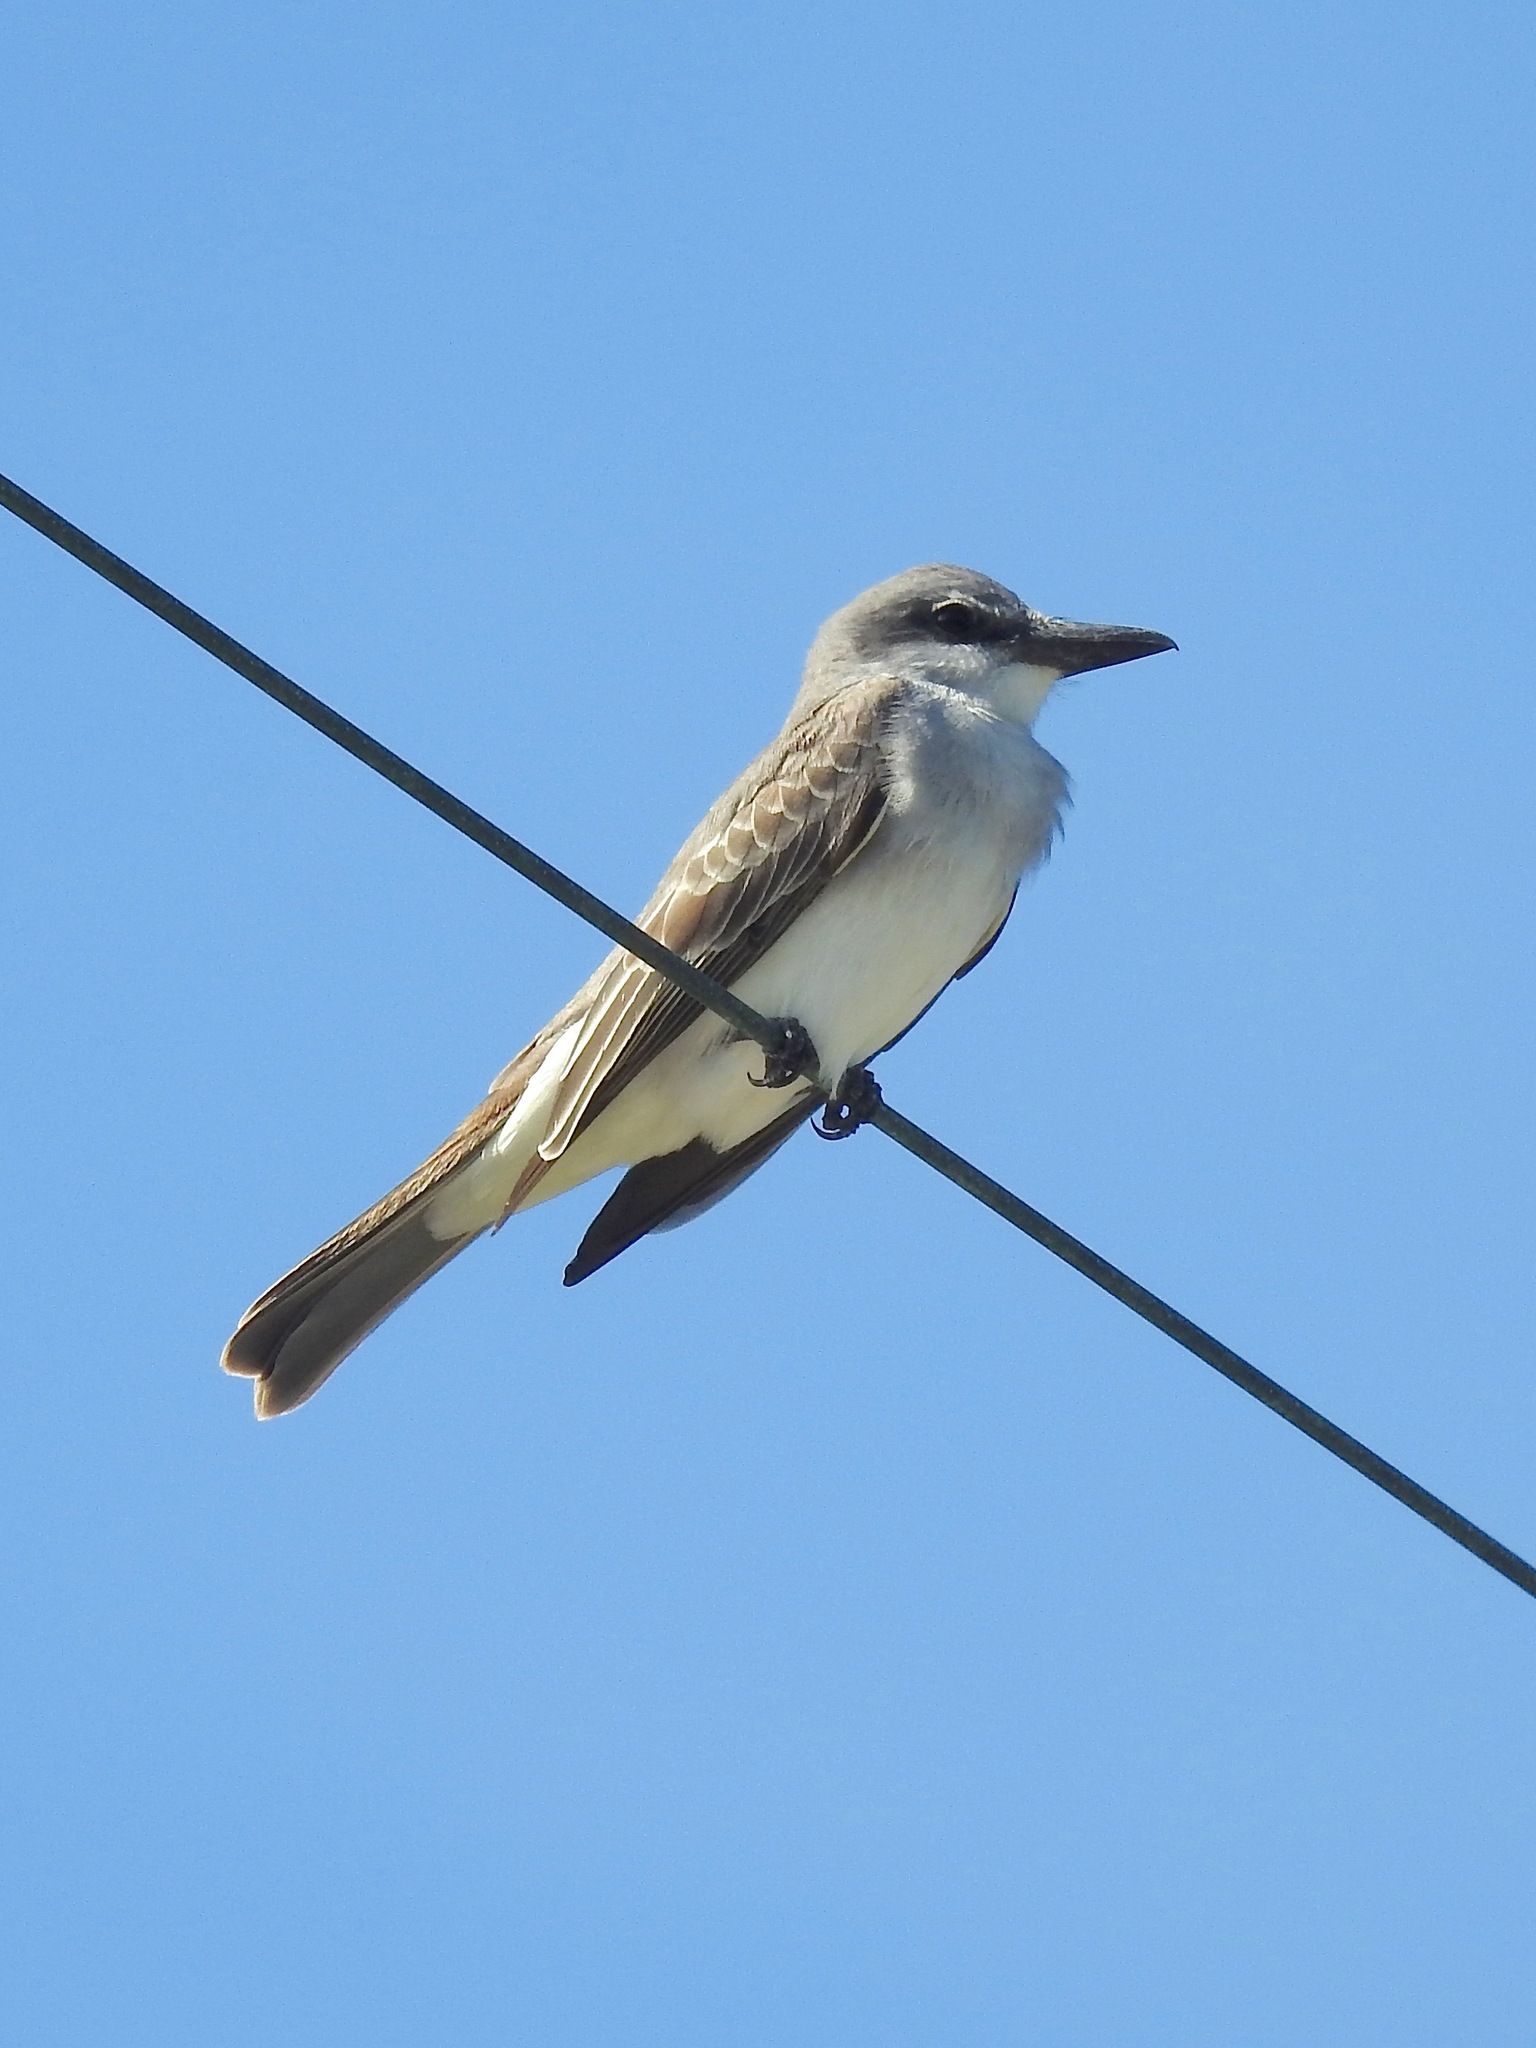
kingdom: Animalia
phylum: Chordata
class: Aves
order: Passeriformes
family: Tyrannidae
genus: Tyrannus
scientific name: Tyrannus dominicensis
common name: Gray kingbird
